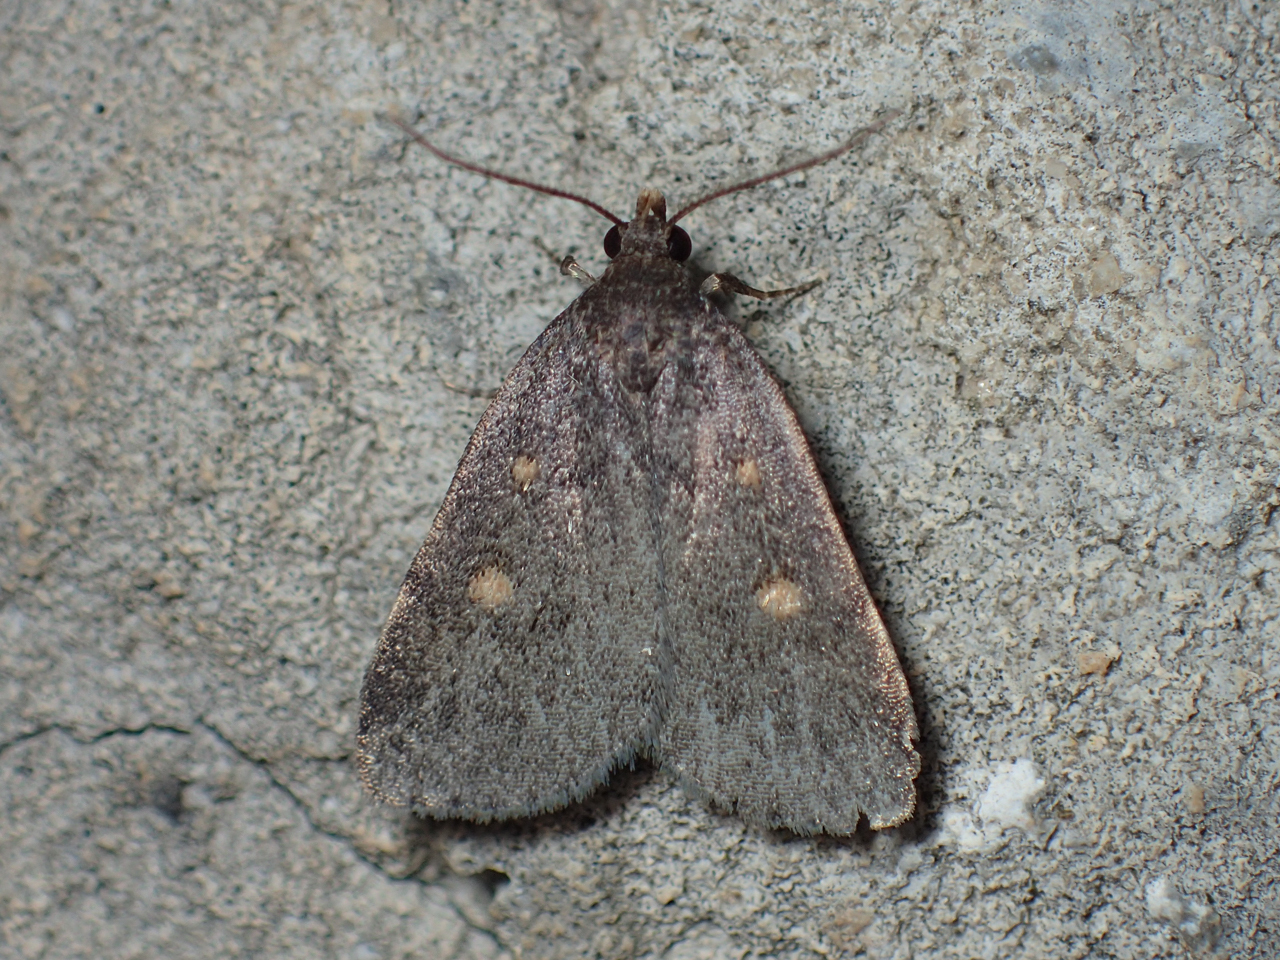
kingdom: Animalia
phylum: Arthropoda
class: Insecta
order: Lepidoptera
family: Erebidae
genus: Tetanolita
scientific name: Tetanolita mynesalis
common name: Smoky tetanolita moth
